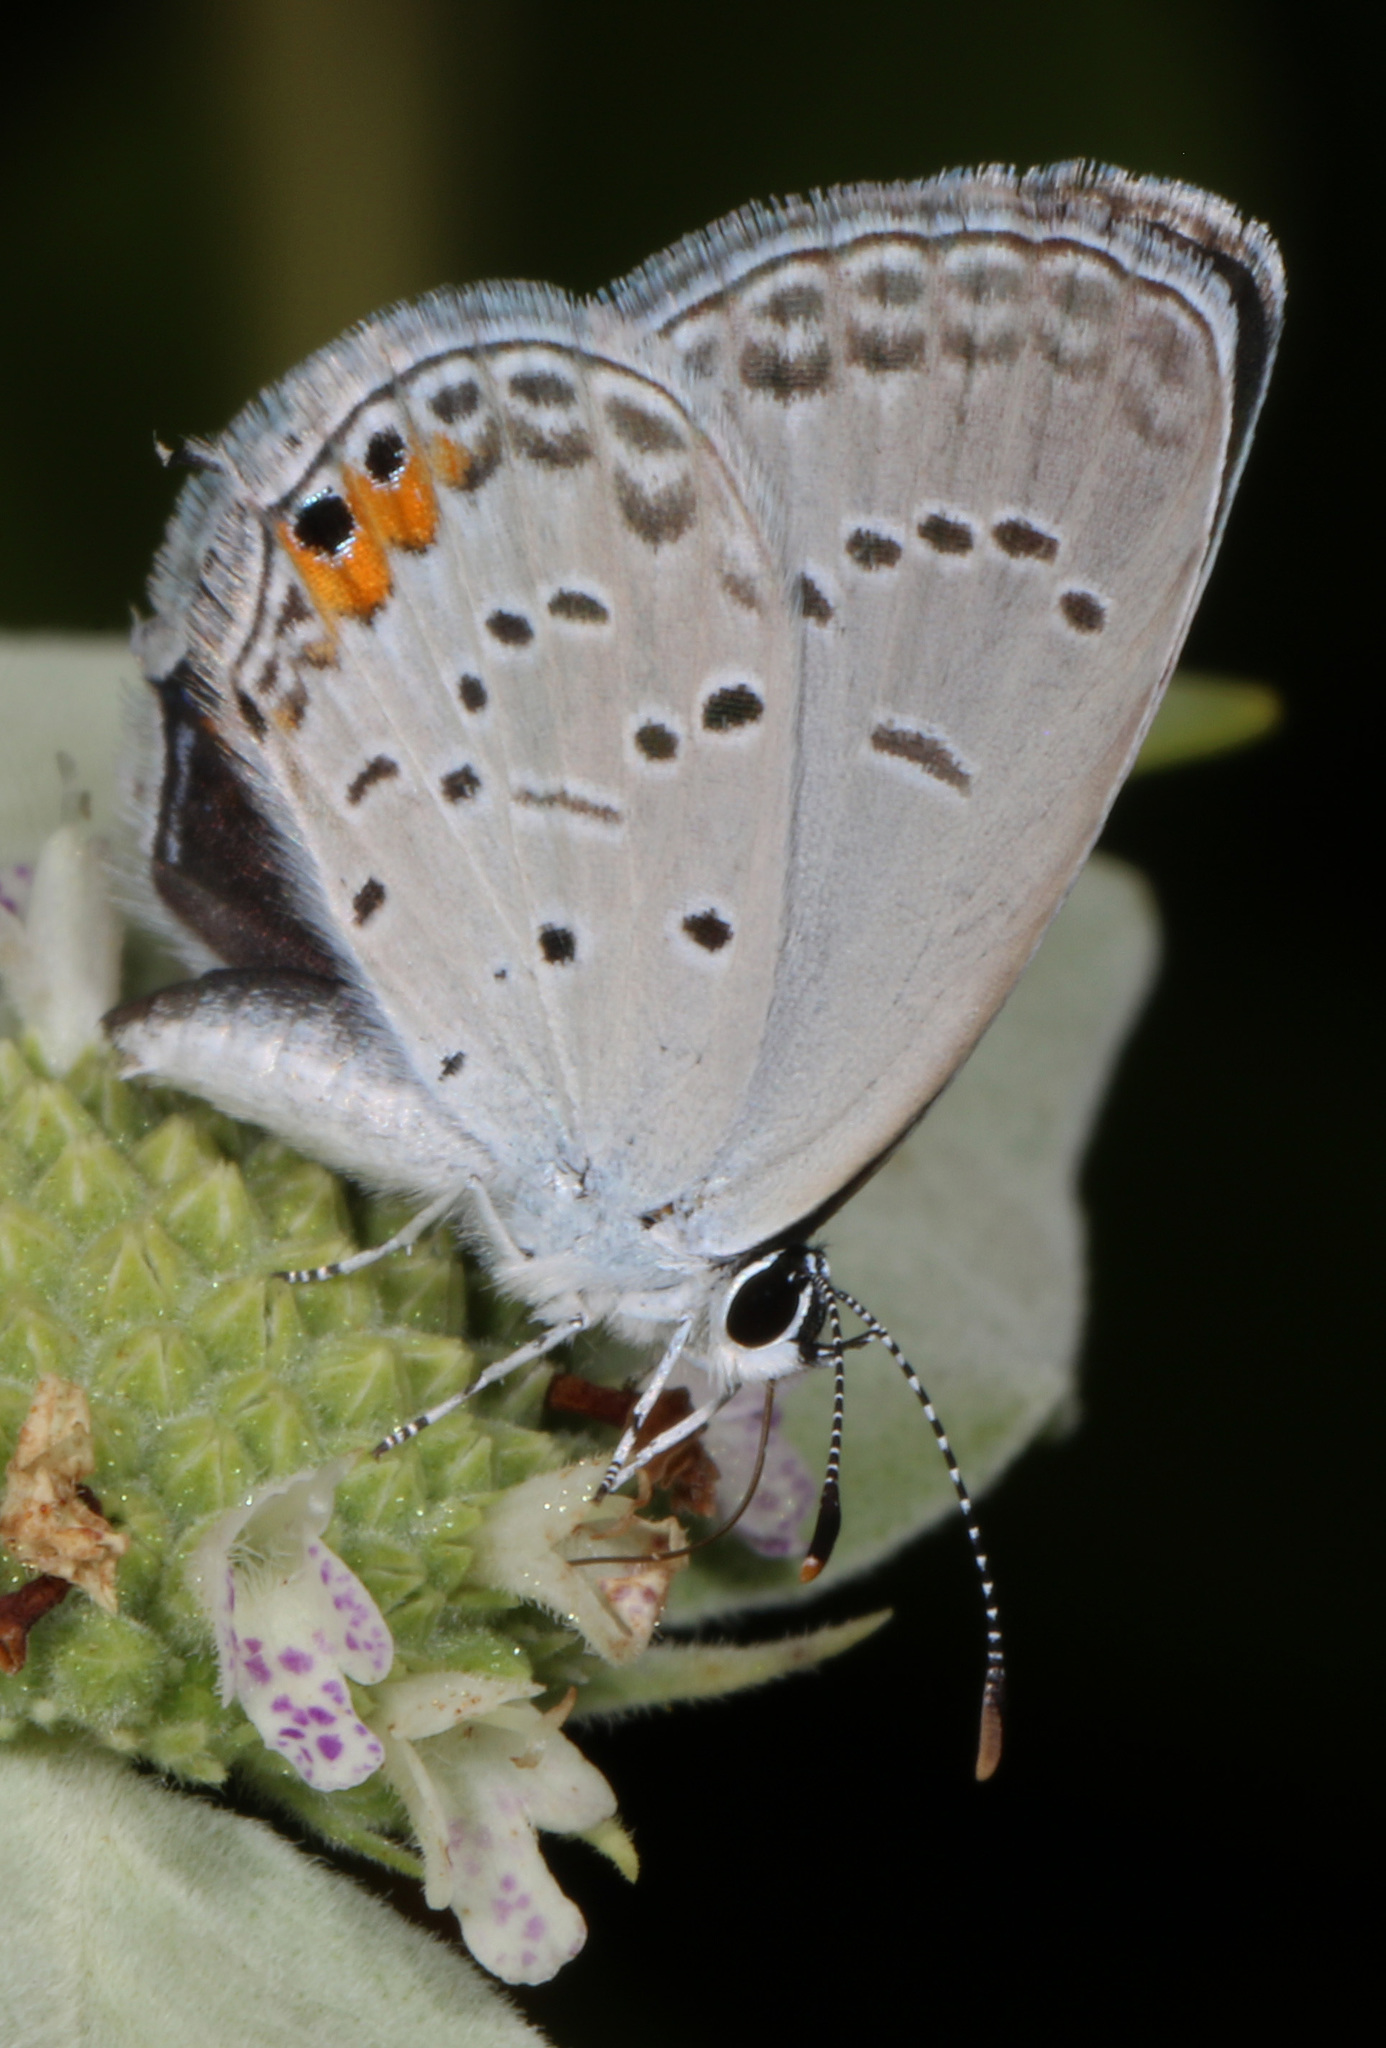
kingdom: Animalia
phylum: Arthropoda
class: Insecta
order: Lepidoptera
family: Lycaenidae
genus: Elkalyce
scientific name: Elkalyce comyntas
